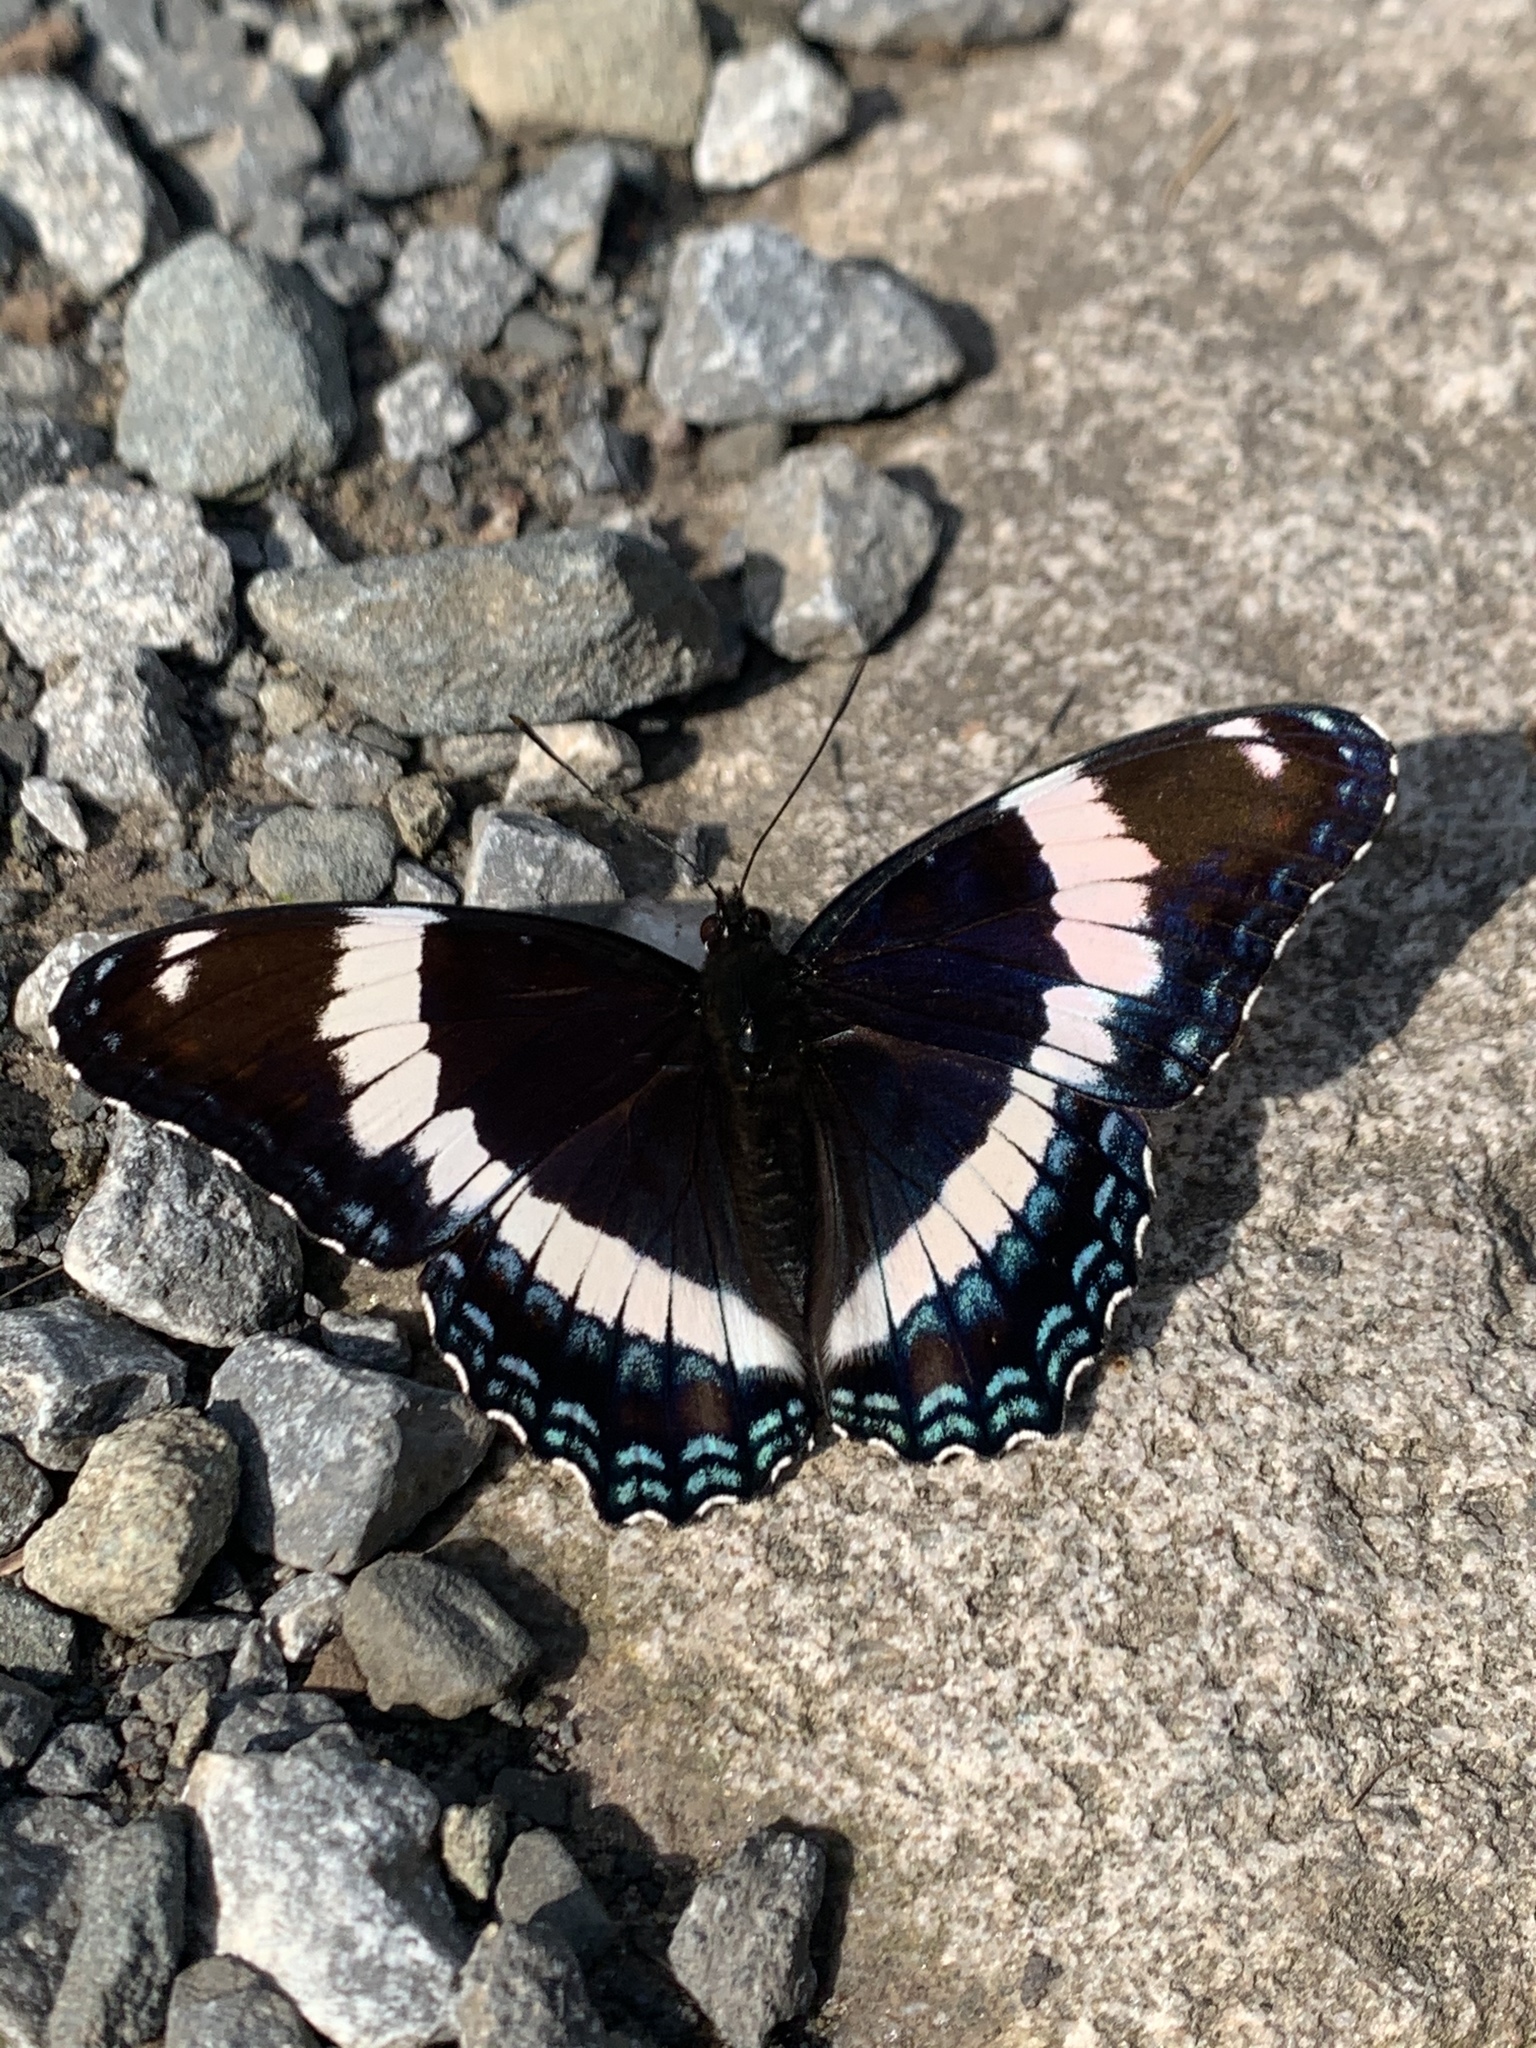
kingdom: Animalia
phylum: Arthropoda
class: Insecta
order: Lepidoptera
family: Nymphalidae
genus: Limenitis
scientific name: Limenitis arthemis
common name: Red-spotted admiral
